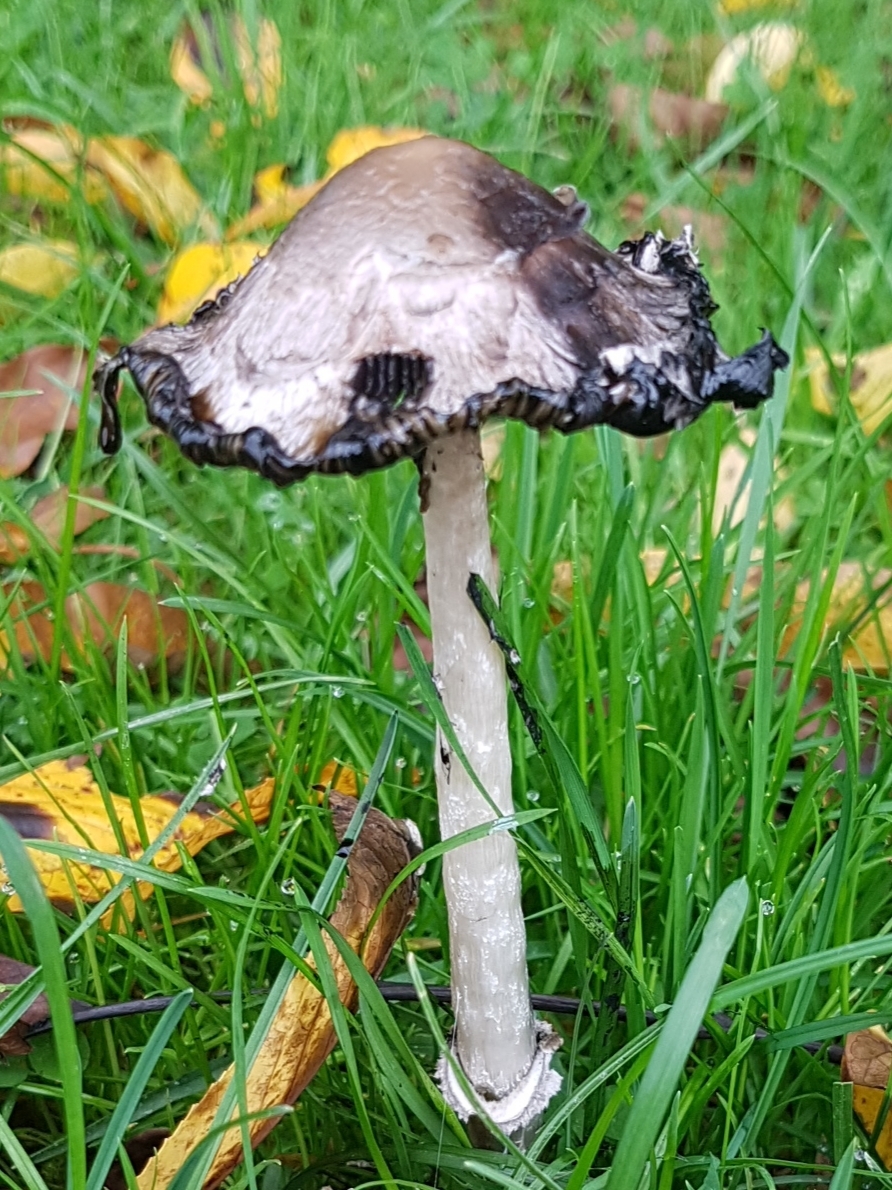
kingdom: Fungi
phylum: Basidiomycota
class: Agaricomycetes
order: Agaricales
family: Agaricaceae
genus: Coprinus
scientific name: Coprinus comatus
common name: Lawyer's wig
